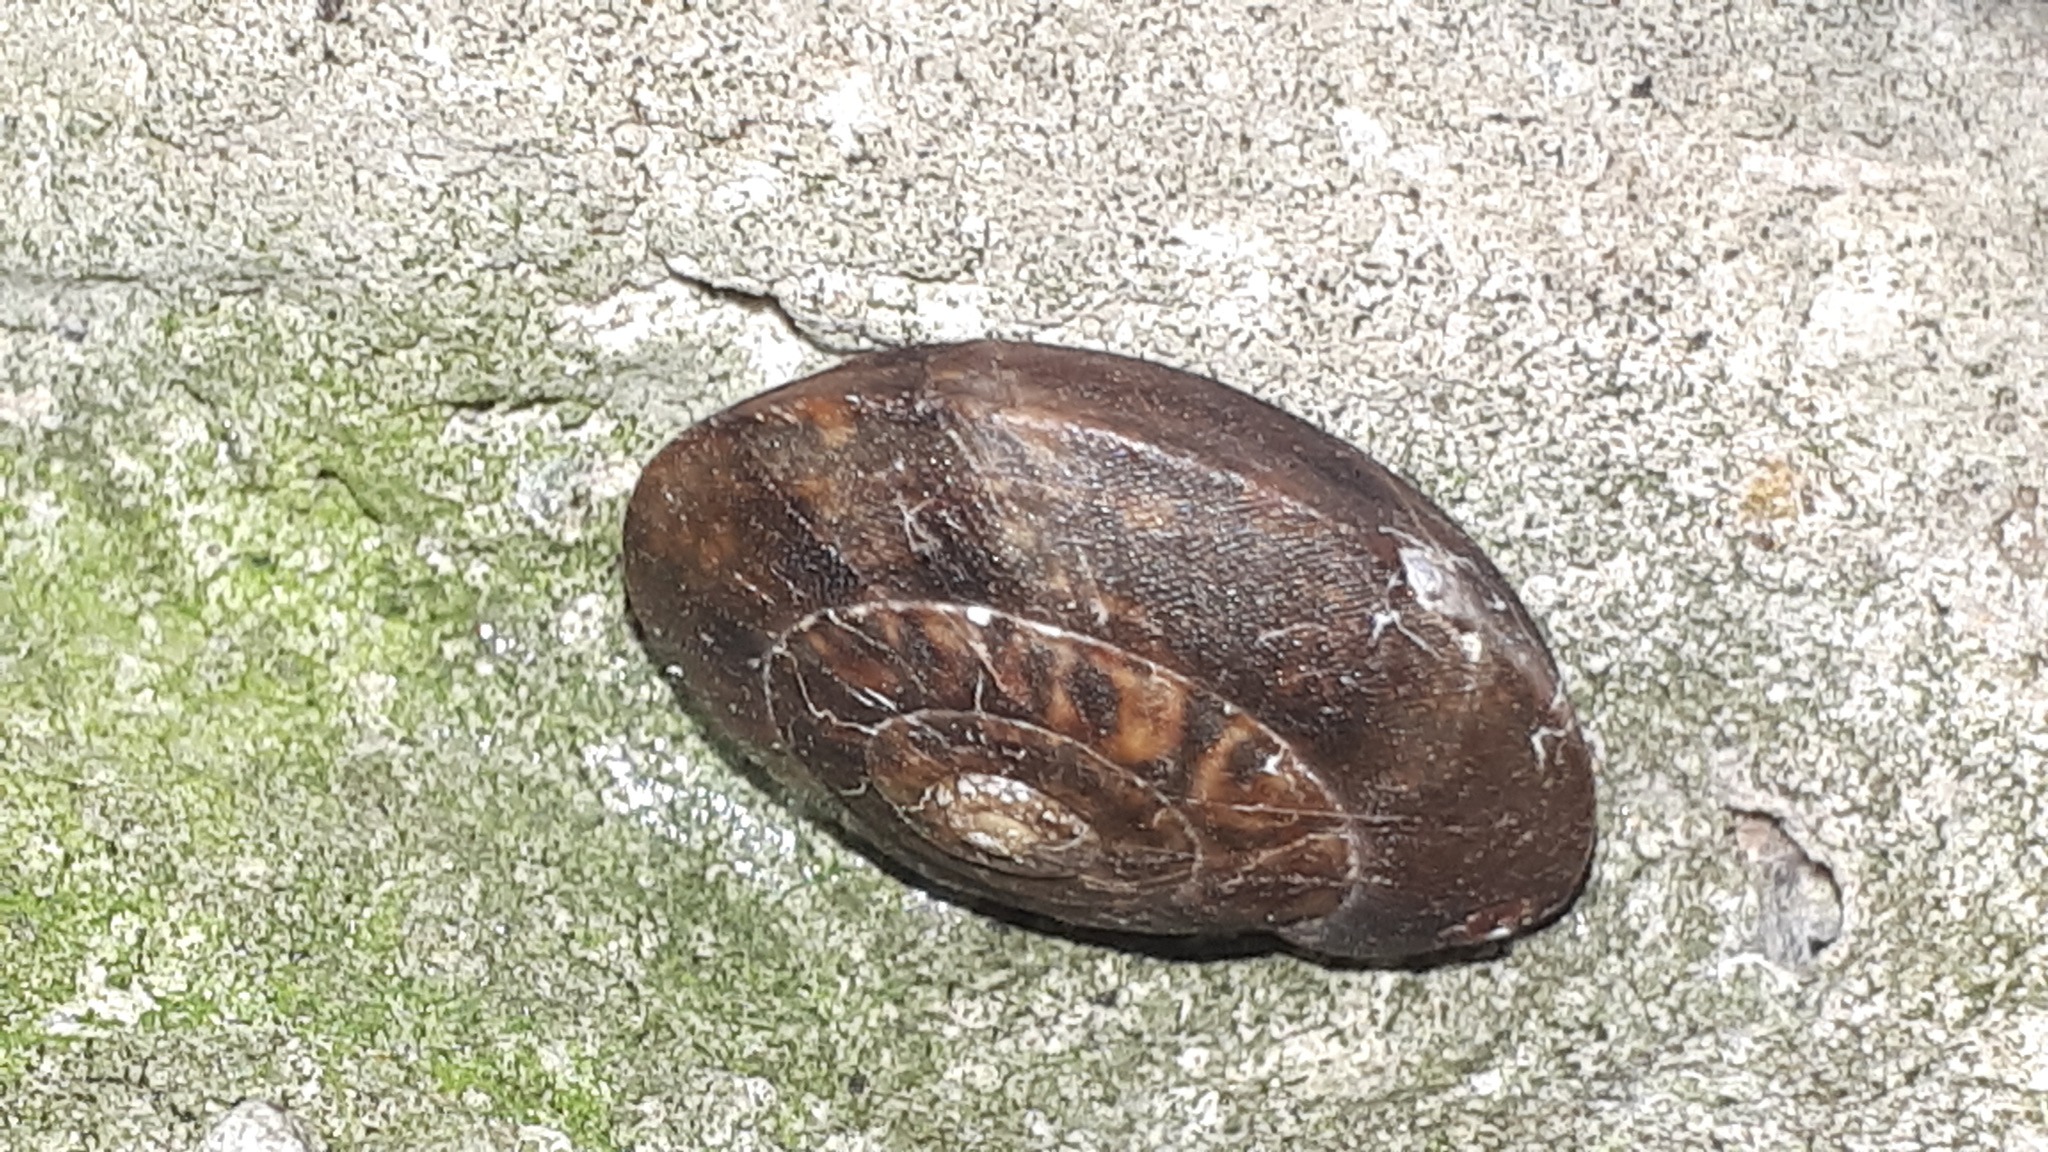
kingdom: Animalia
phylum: Mollusca
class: Gastropoda
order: Stylommatophora
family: Helicidae
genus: Helicigona
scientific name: Helicigona lapicida
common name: Lapidary snail
